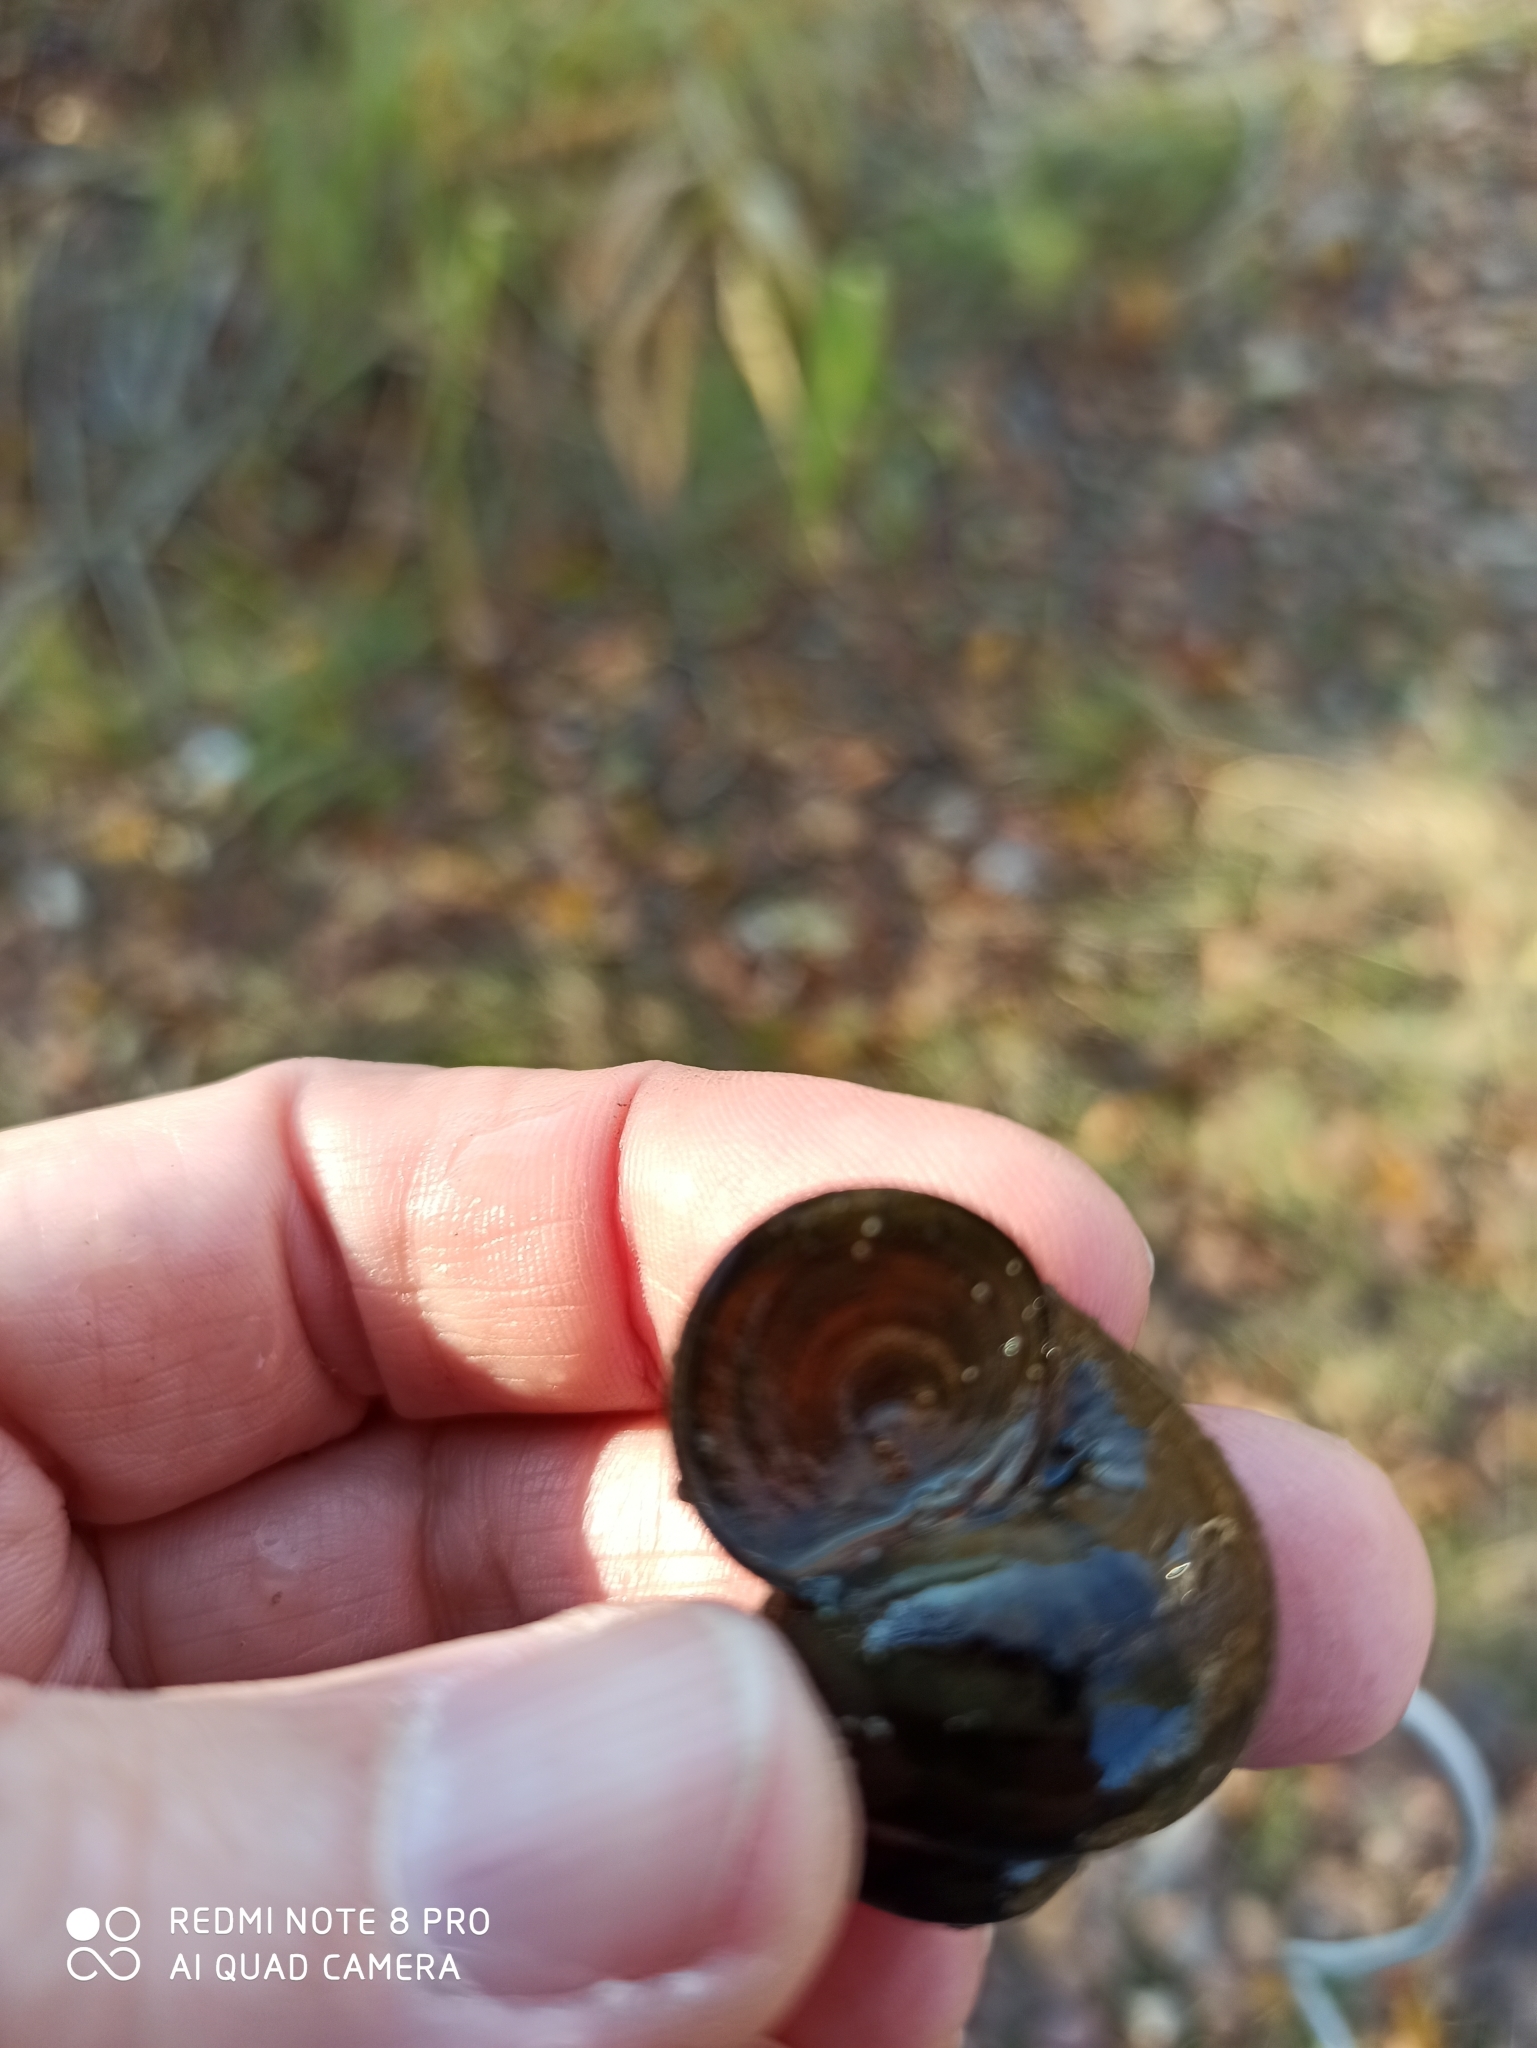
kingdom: Animalia
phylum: Mollusca
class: Gastropoda
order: Architaenioglossa
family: Viviparidae
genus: Viviparus
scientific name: Viviparus contectus
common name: Lister's river snail
